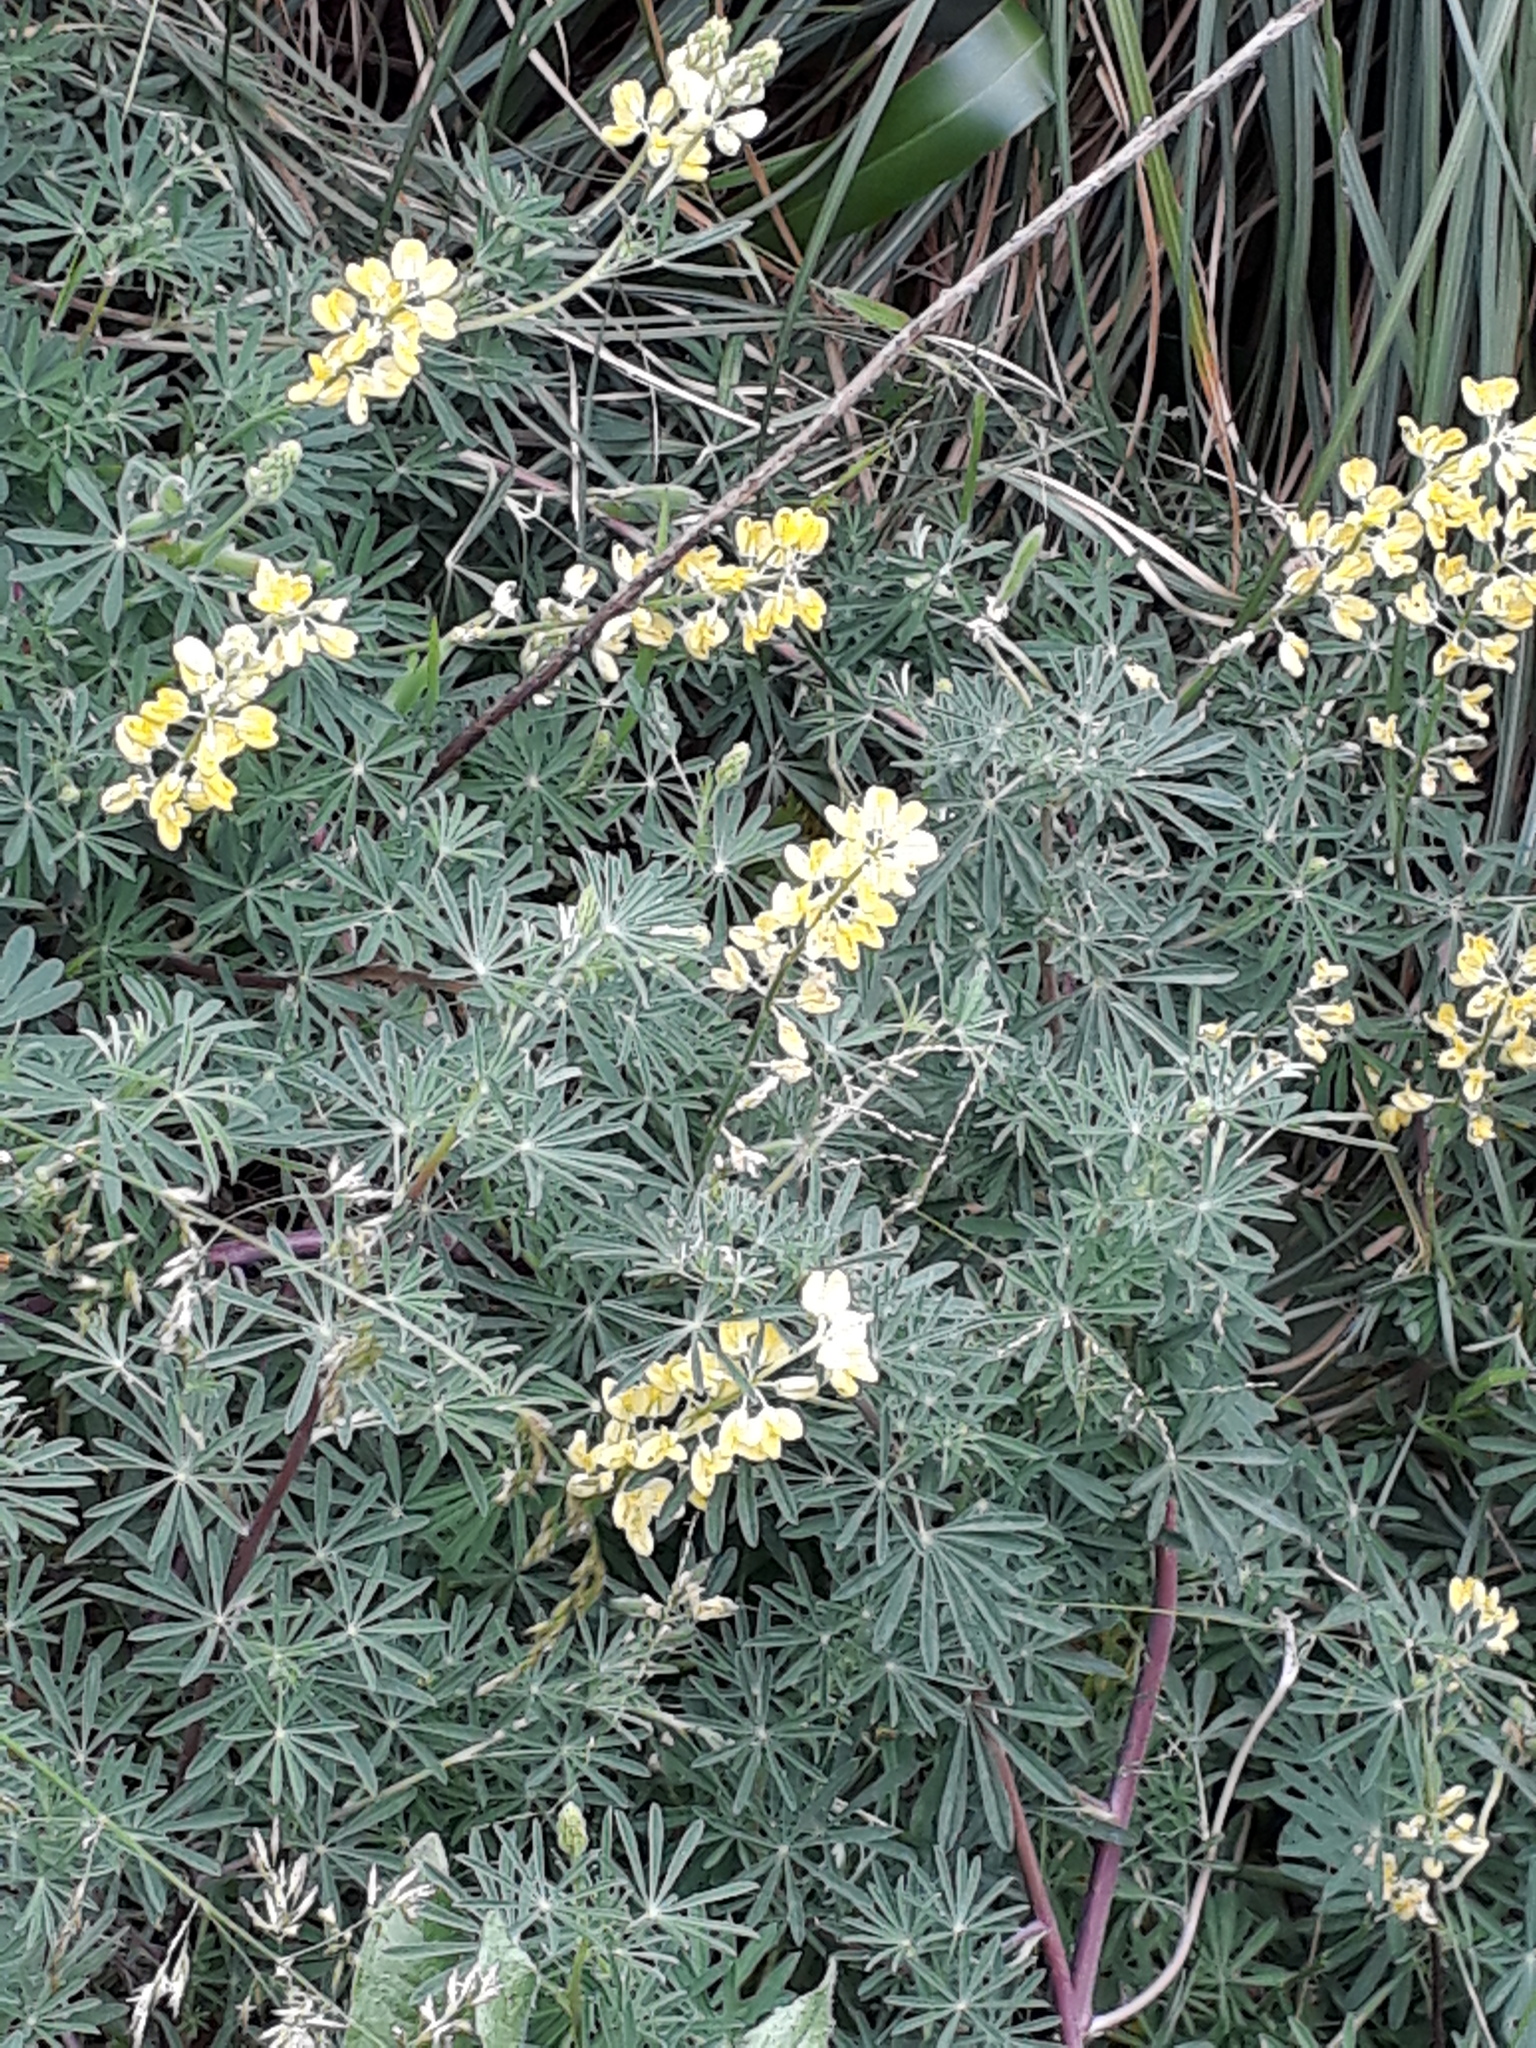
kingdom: Plantae
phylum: Tracheophyta
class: Magnoliopsida
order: Fabales
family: Fabaceae
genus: Lupinus
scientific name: Lupinus arboreus
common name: Yellow bush lupine
